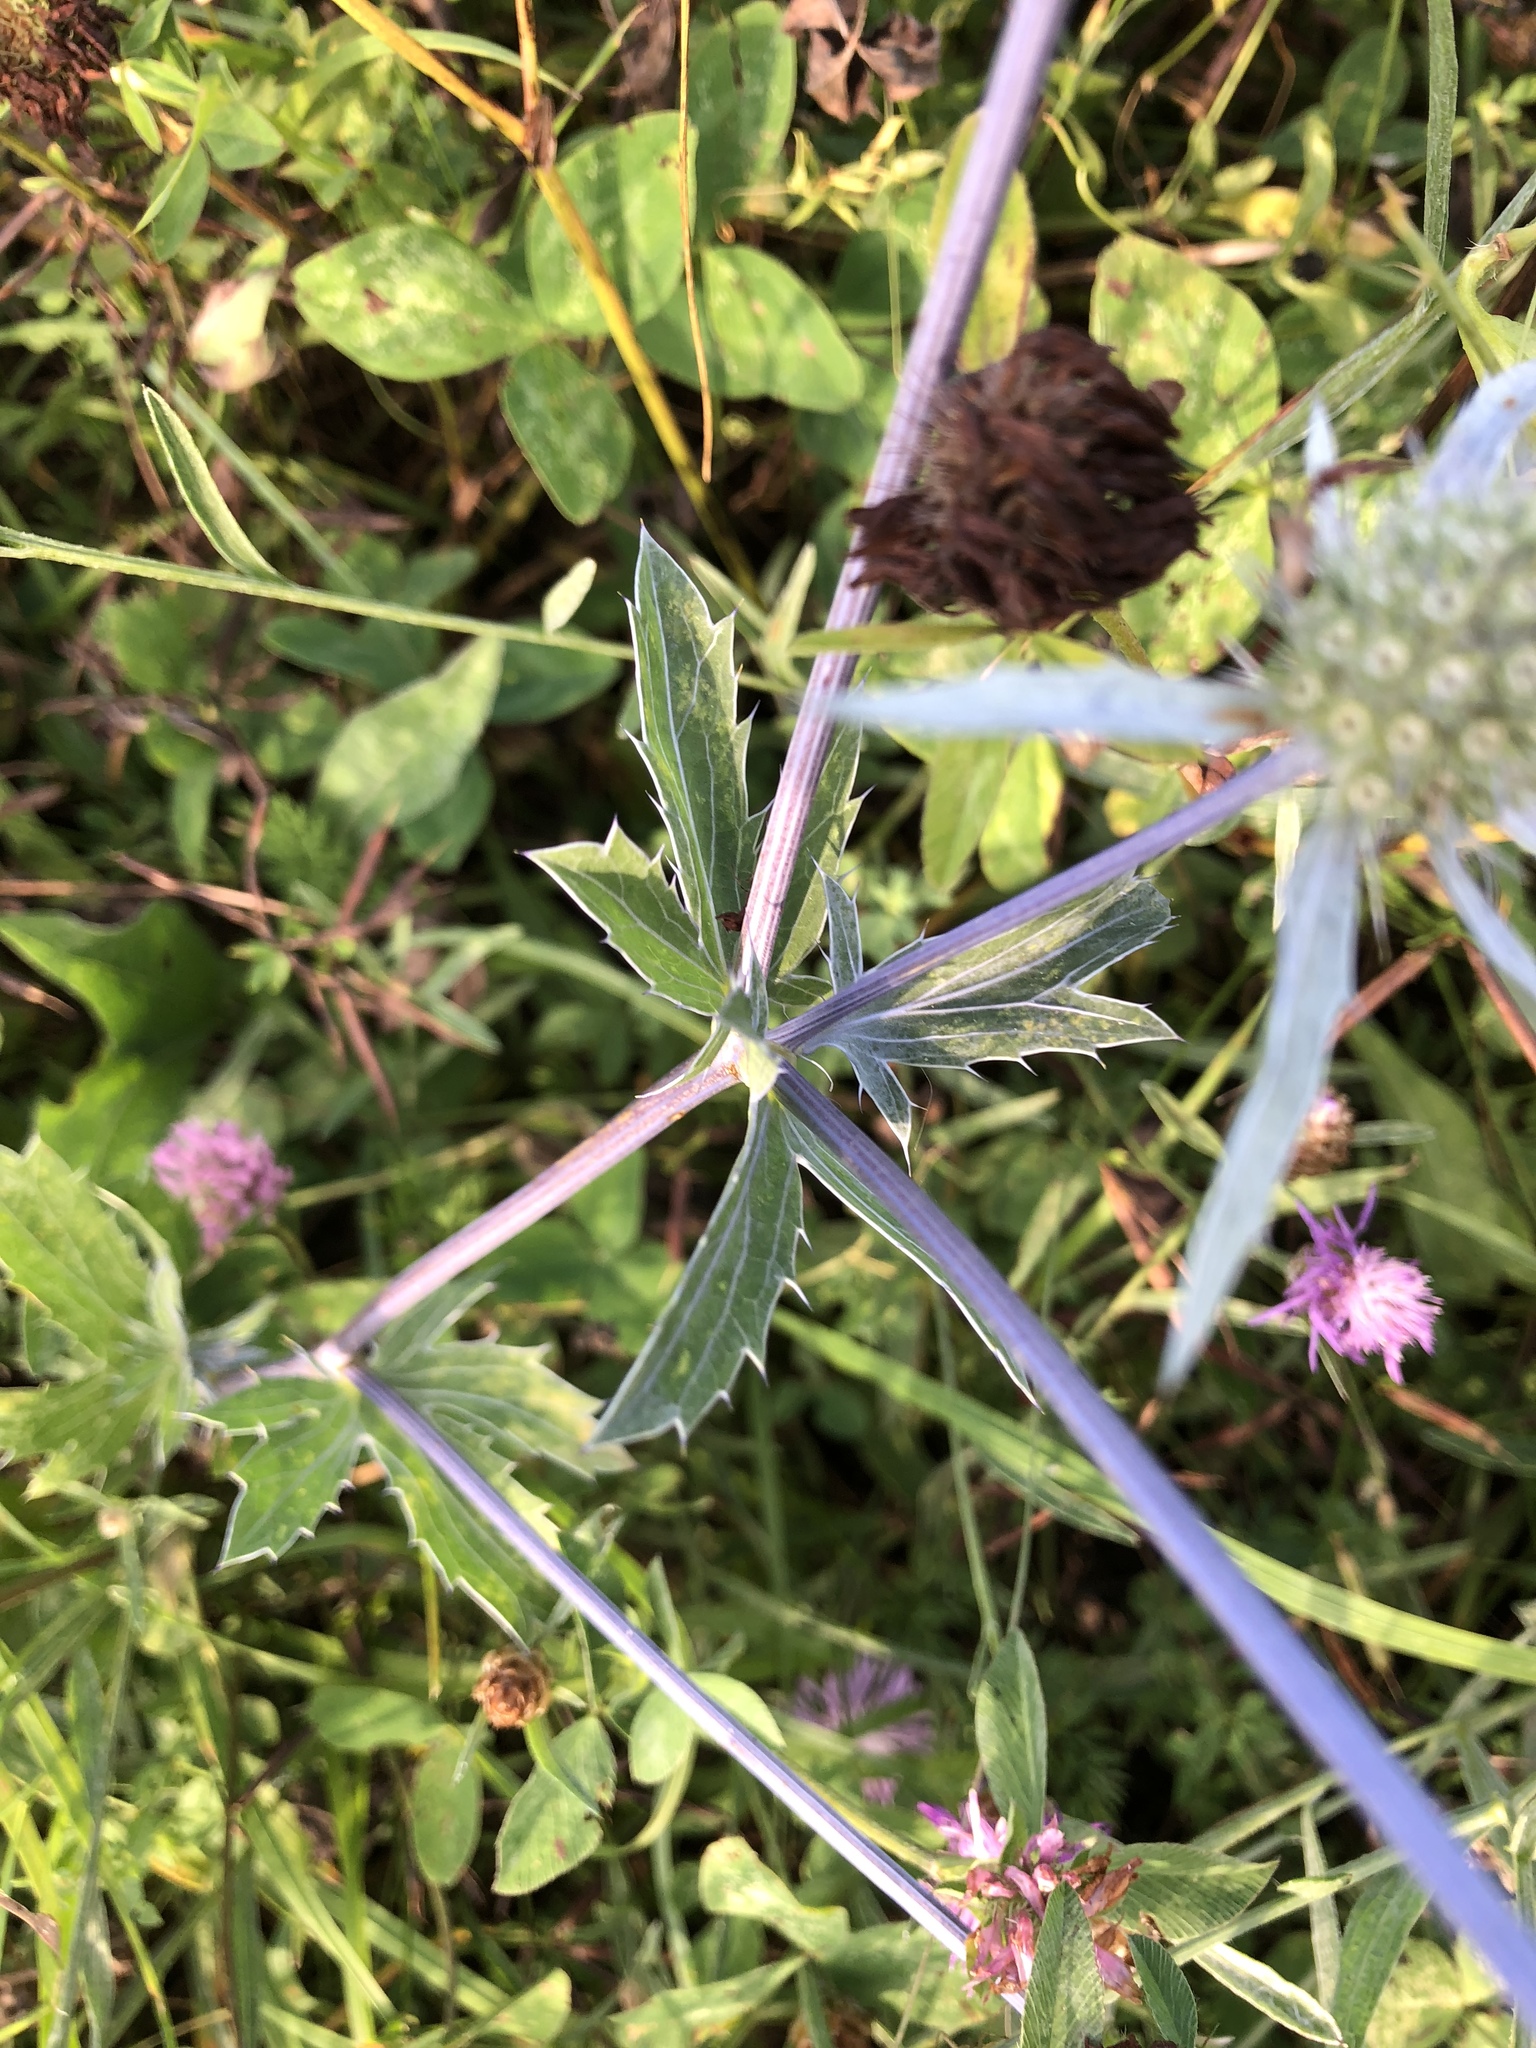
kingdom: Plantae
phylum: Tracheophyta
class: Magnoliopsida
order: Apiales
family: Apiaceae
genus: Eryngium
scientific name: Eryngium planum
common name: Blue eryngo
